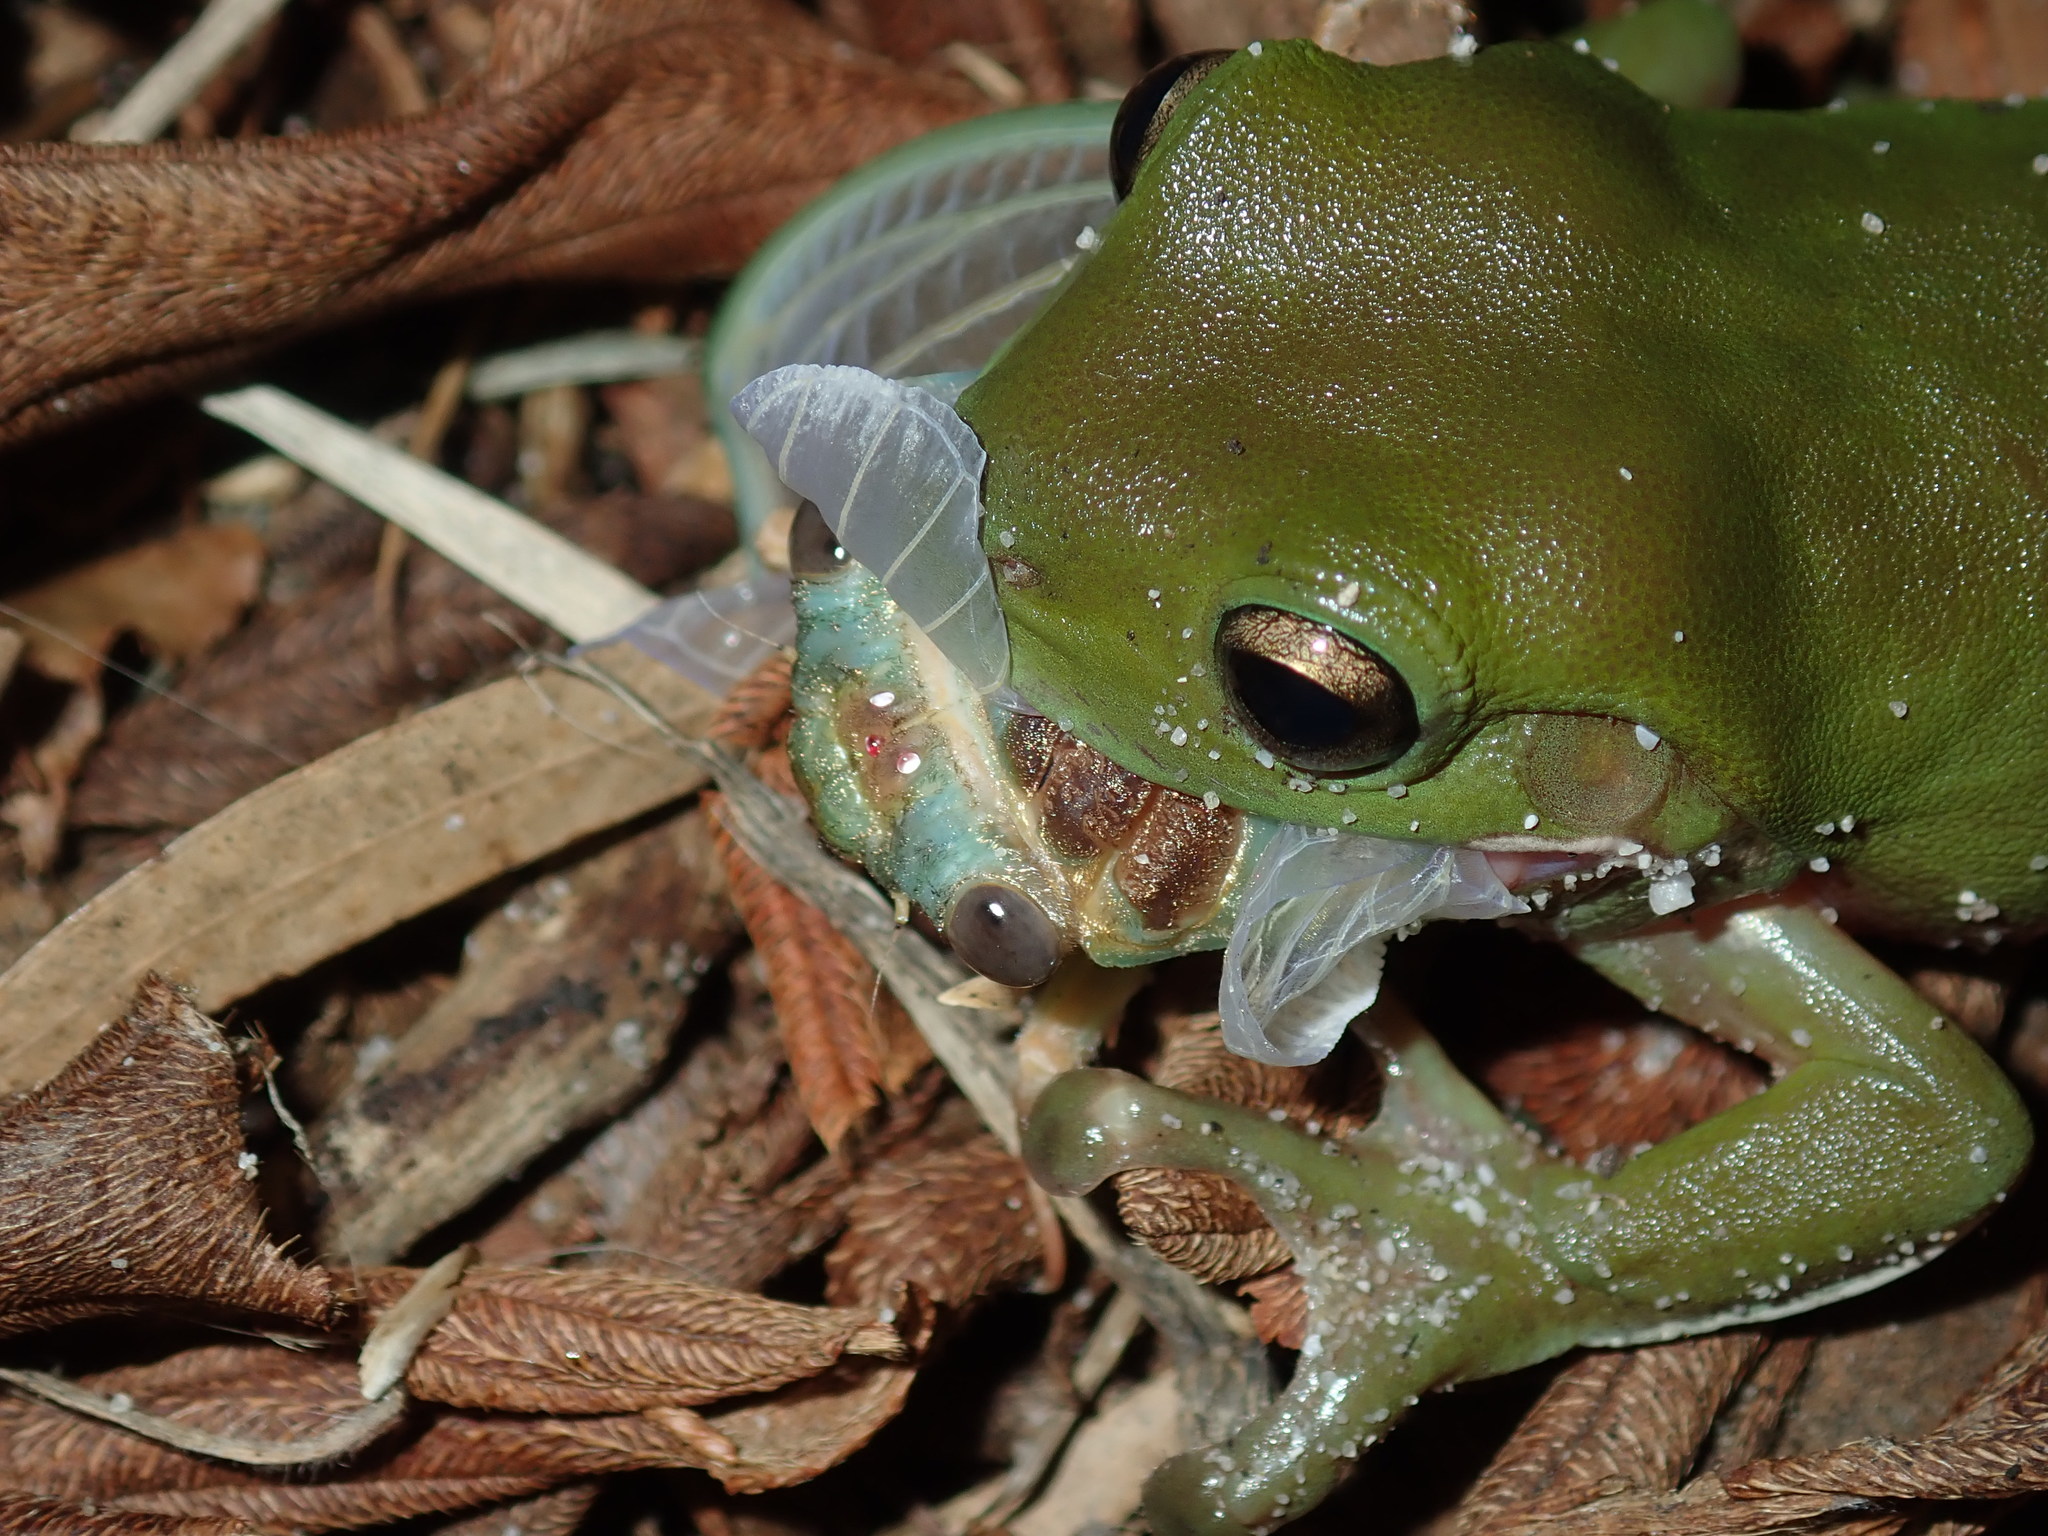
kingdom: Animalia
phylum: Chordata
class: Amphibia
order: Anura
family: Pelodryadidae
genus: Ranoidea
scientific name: Ranoidea caerulea
